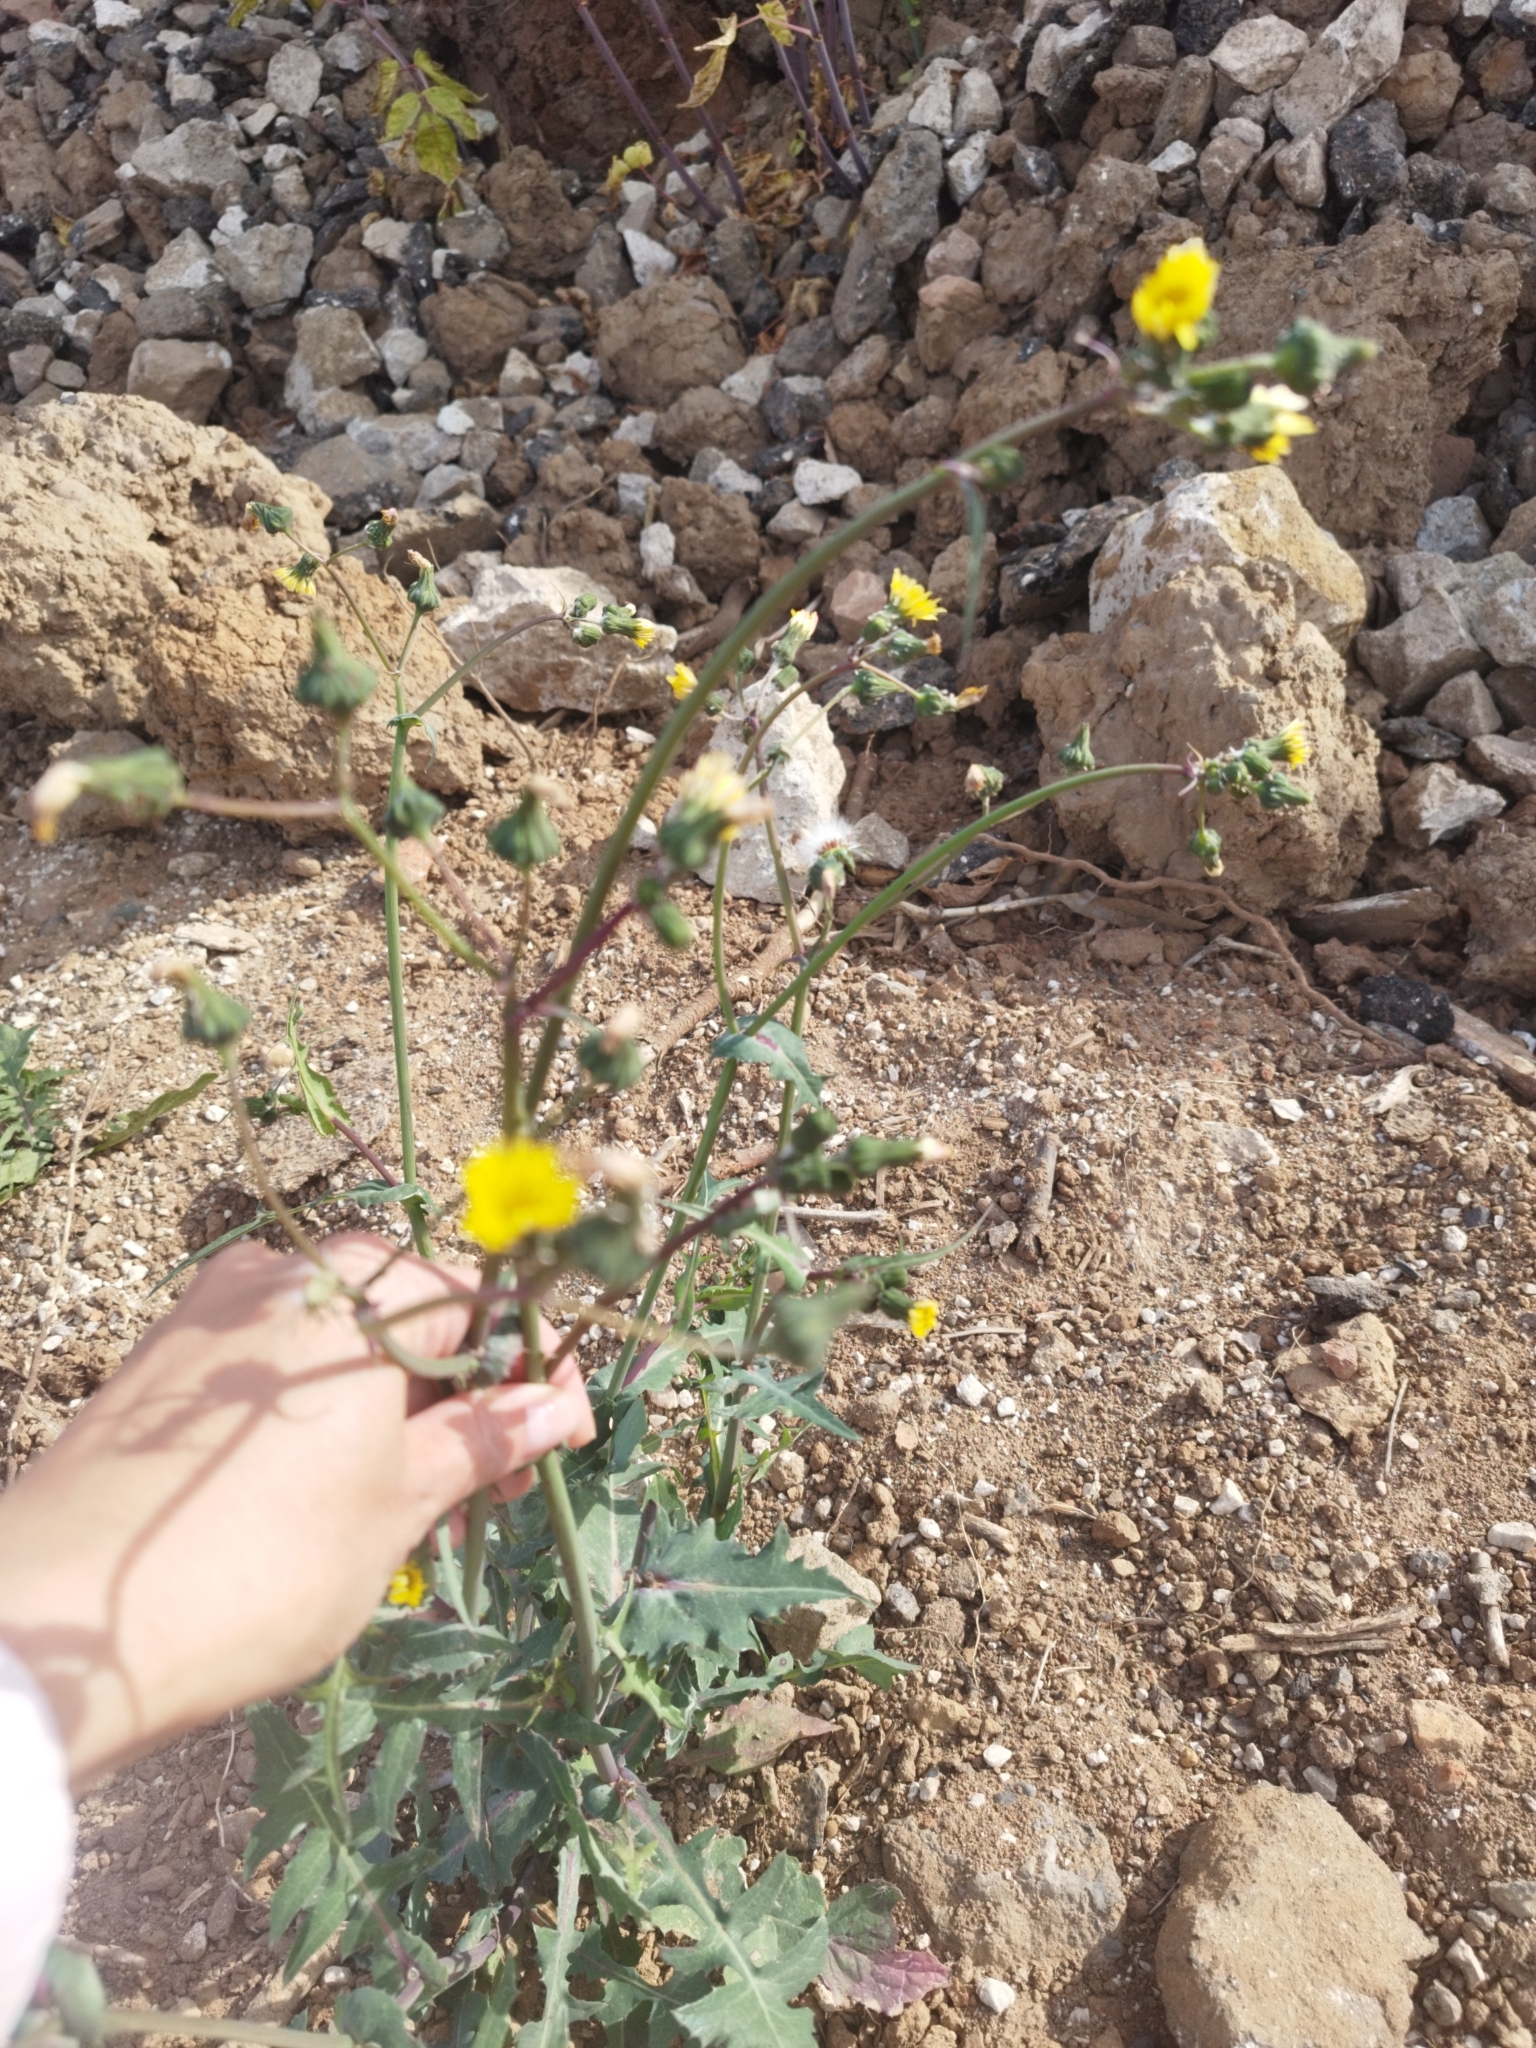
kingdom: Plantae
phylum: Tracheophyta
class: Magnoliopsida
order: Asterales
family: Asteraceae
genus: Sonchus
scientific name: Sonchus oleraceus
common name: Common sowthistle
